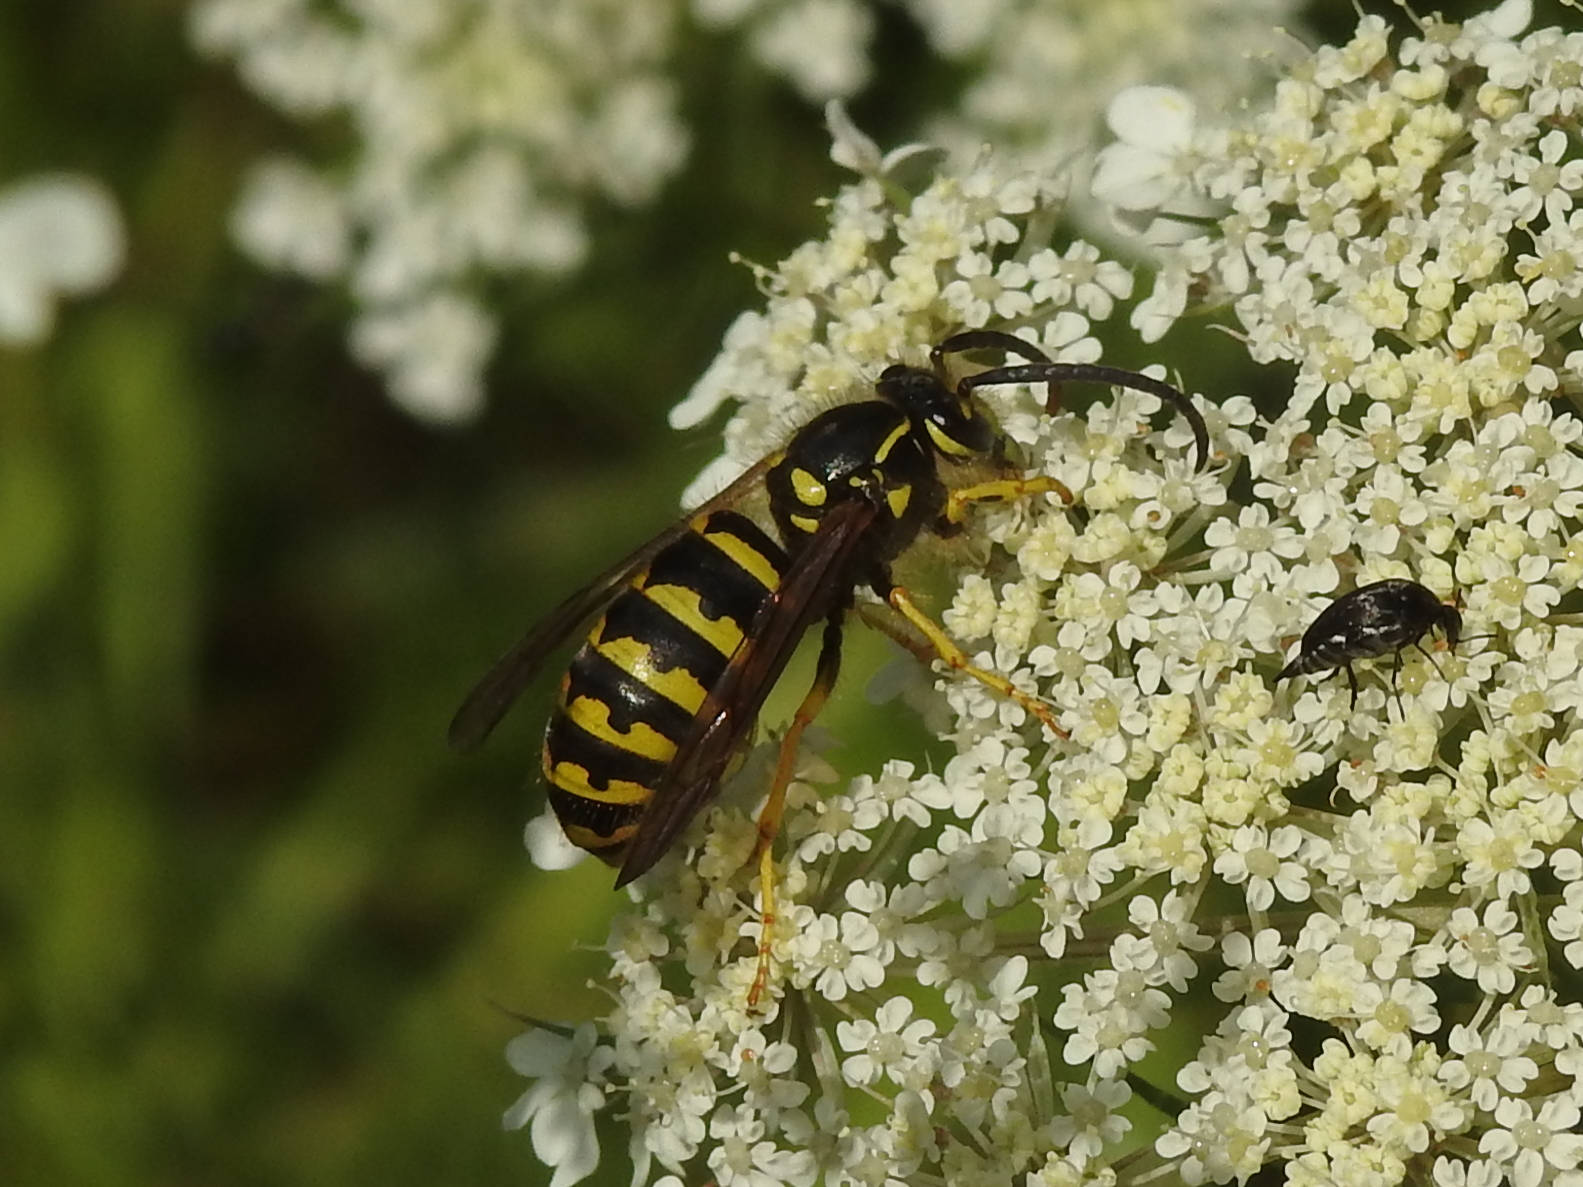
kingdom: Animalia
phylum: Arthropoda
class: Insecta
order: Hymenoptera
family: Vespidae
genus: Dolichovespula
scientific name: Dolichovespula arenaria
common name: Aerial yellowjacket
